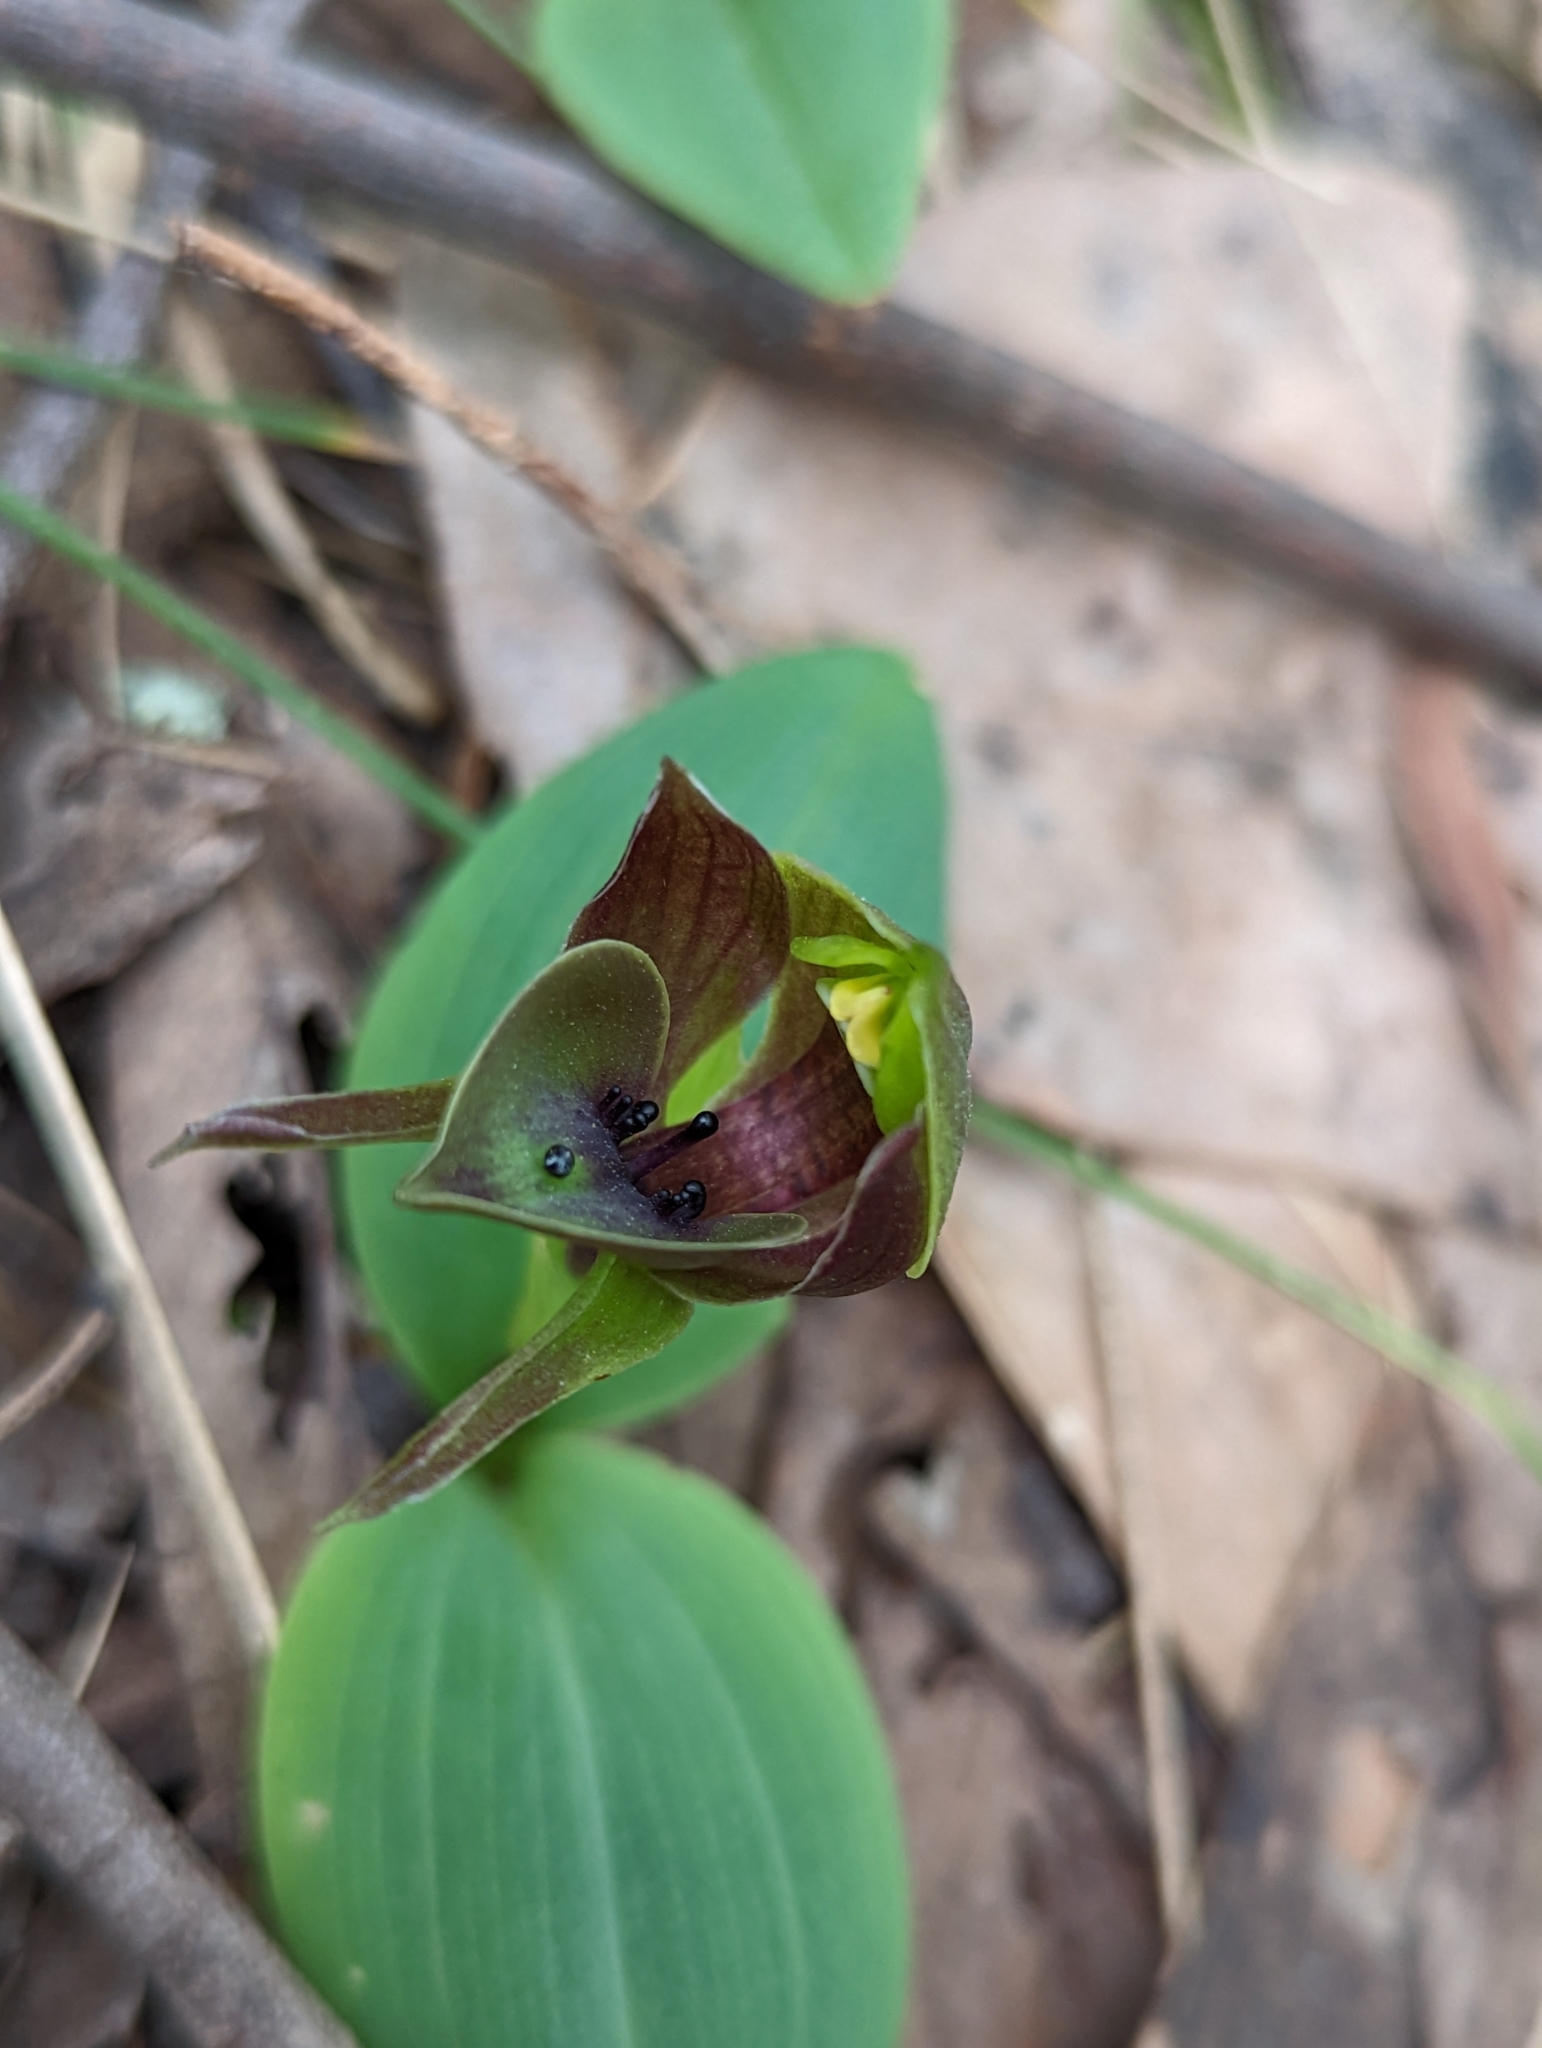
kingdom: Plantae
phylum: Tracheophyta
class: Liliopsida
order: Asparagales
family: Orchidaceae
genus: Chiloglottis
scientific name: Chiloglottis valida
